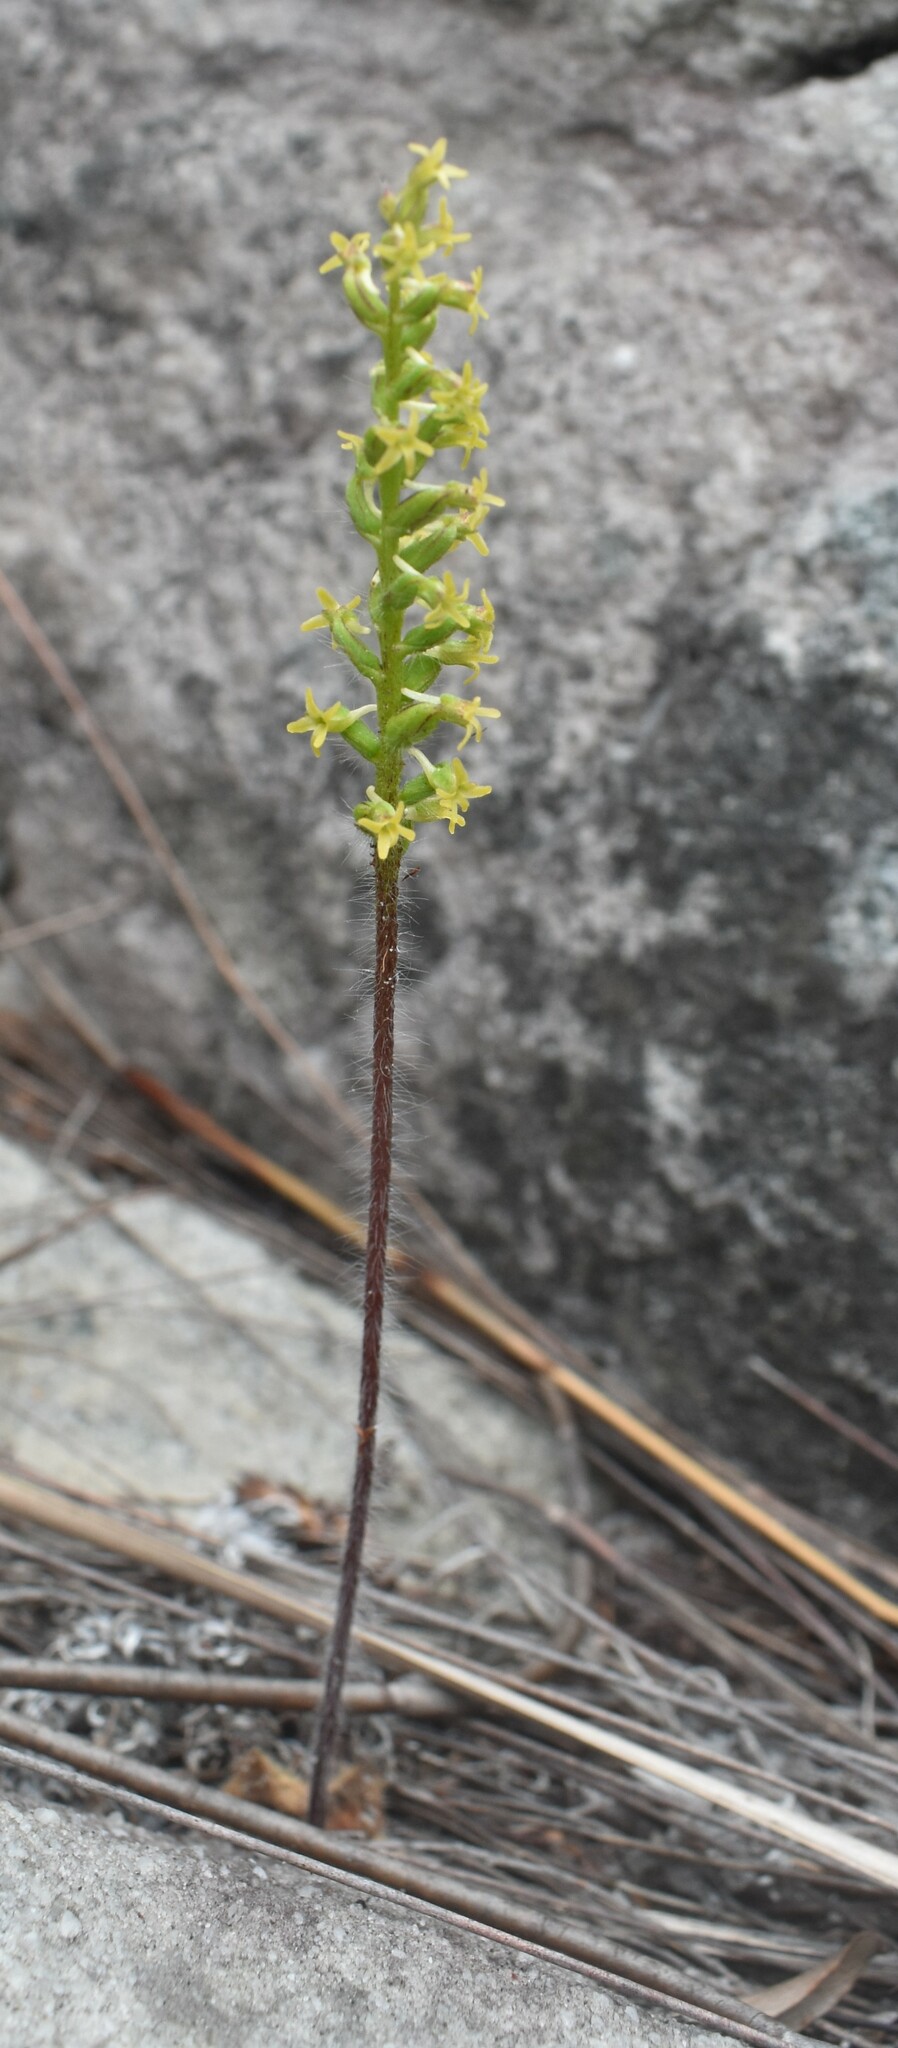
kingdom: Plantae
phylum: Tracheophyta
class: Liliopsida
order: Asparagales
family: Orchidaceae
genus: Holothrix
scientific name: Holothrix villosa
